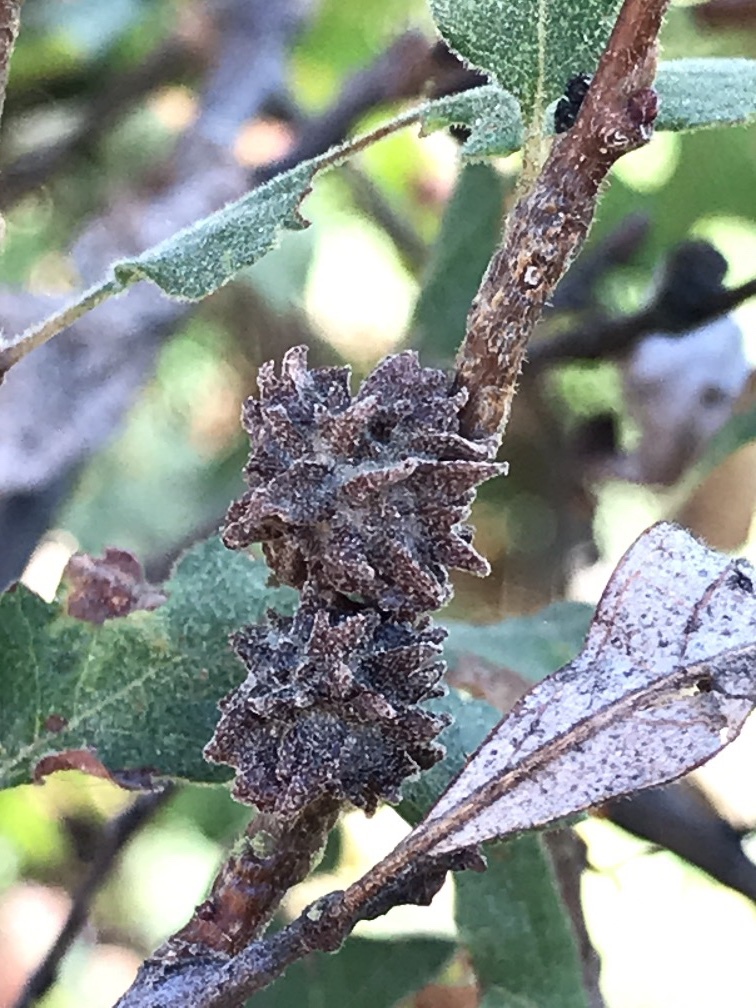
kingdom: Animalia
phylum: Arthropoda
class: Insecta
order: Hymenoptera
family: Cynipidae
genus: Cynips
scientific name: Cynips
